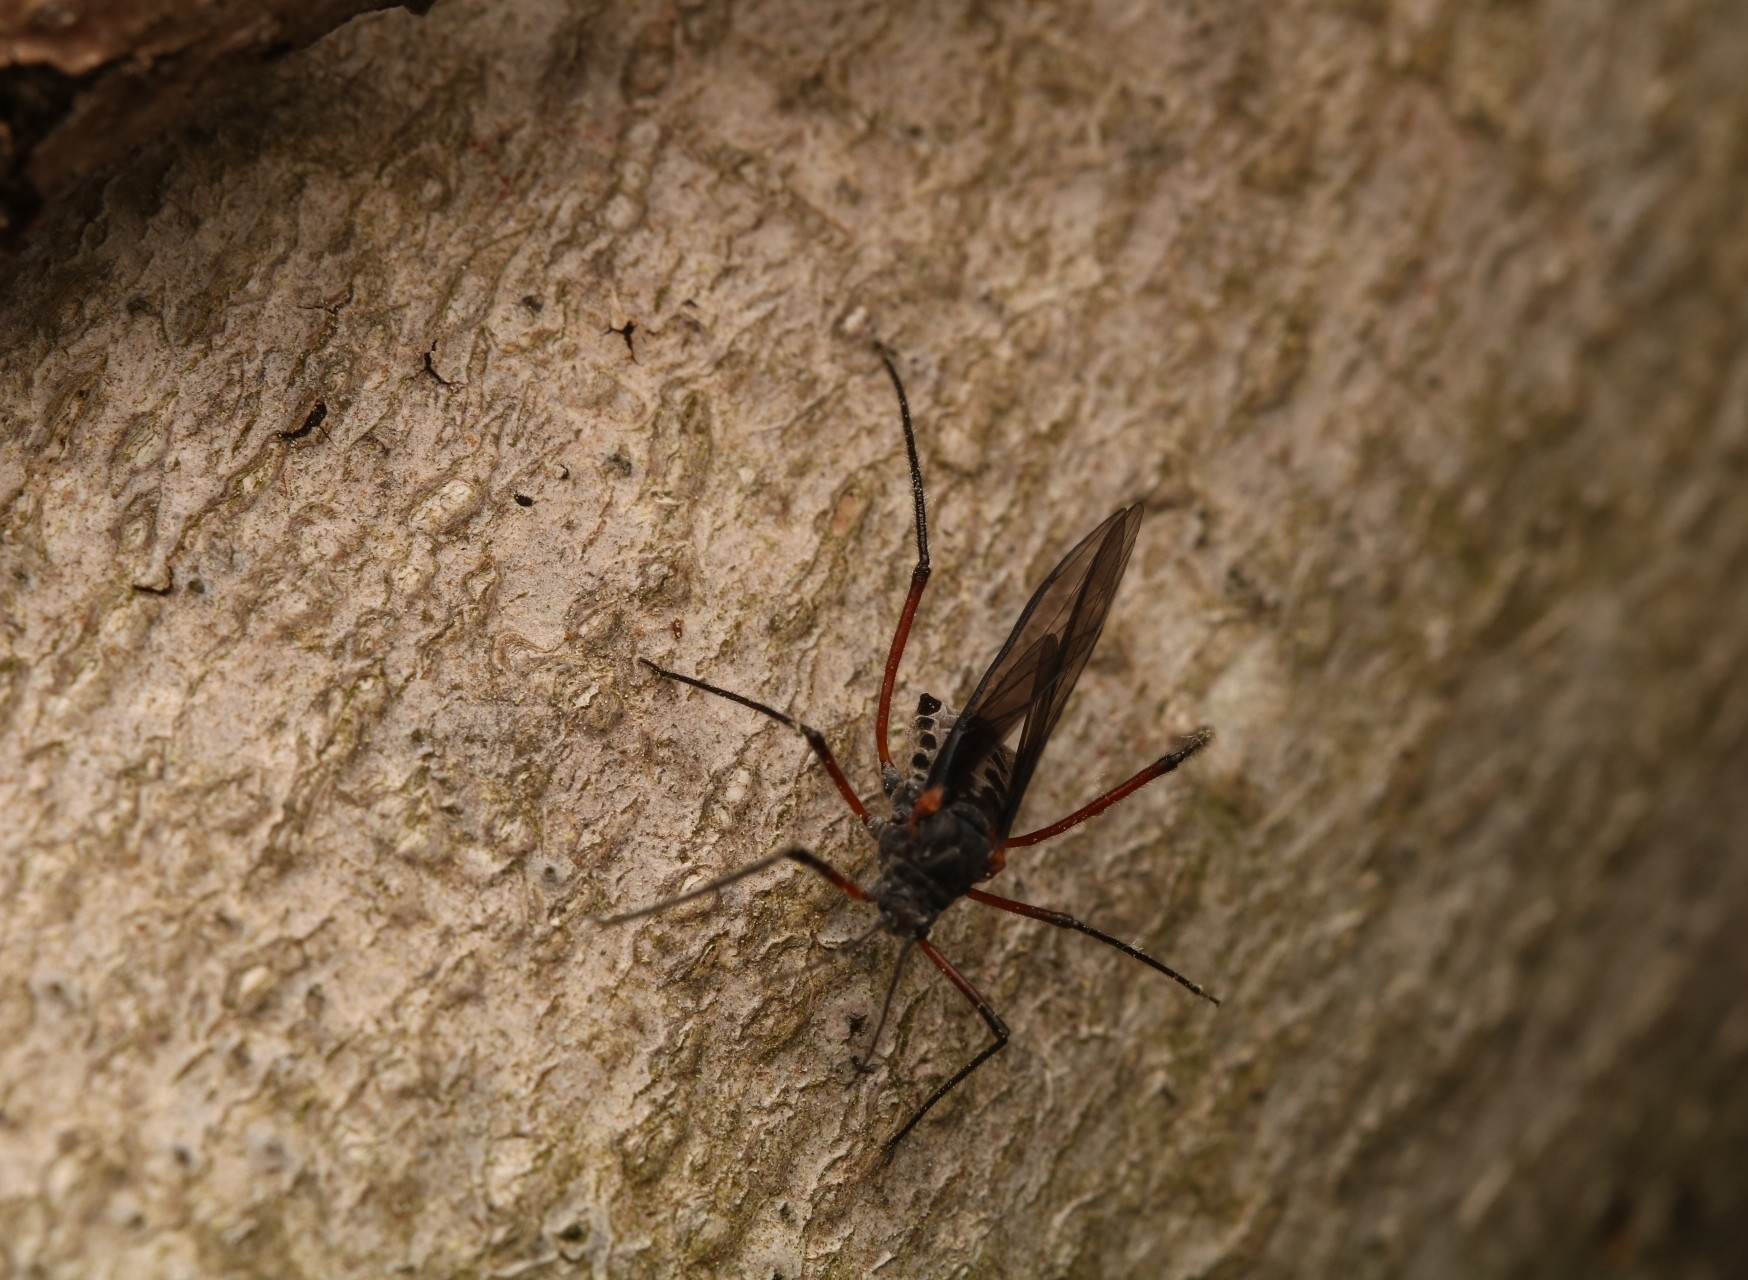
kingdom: Animalia
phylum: Arthropoda
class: Insecta
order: Hemiptera
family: Aphididae
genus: Longistigma
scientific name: Longistigma caryae
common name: Giant bark aphid
